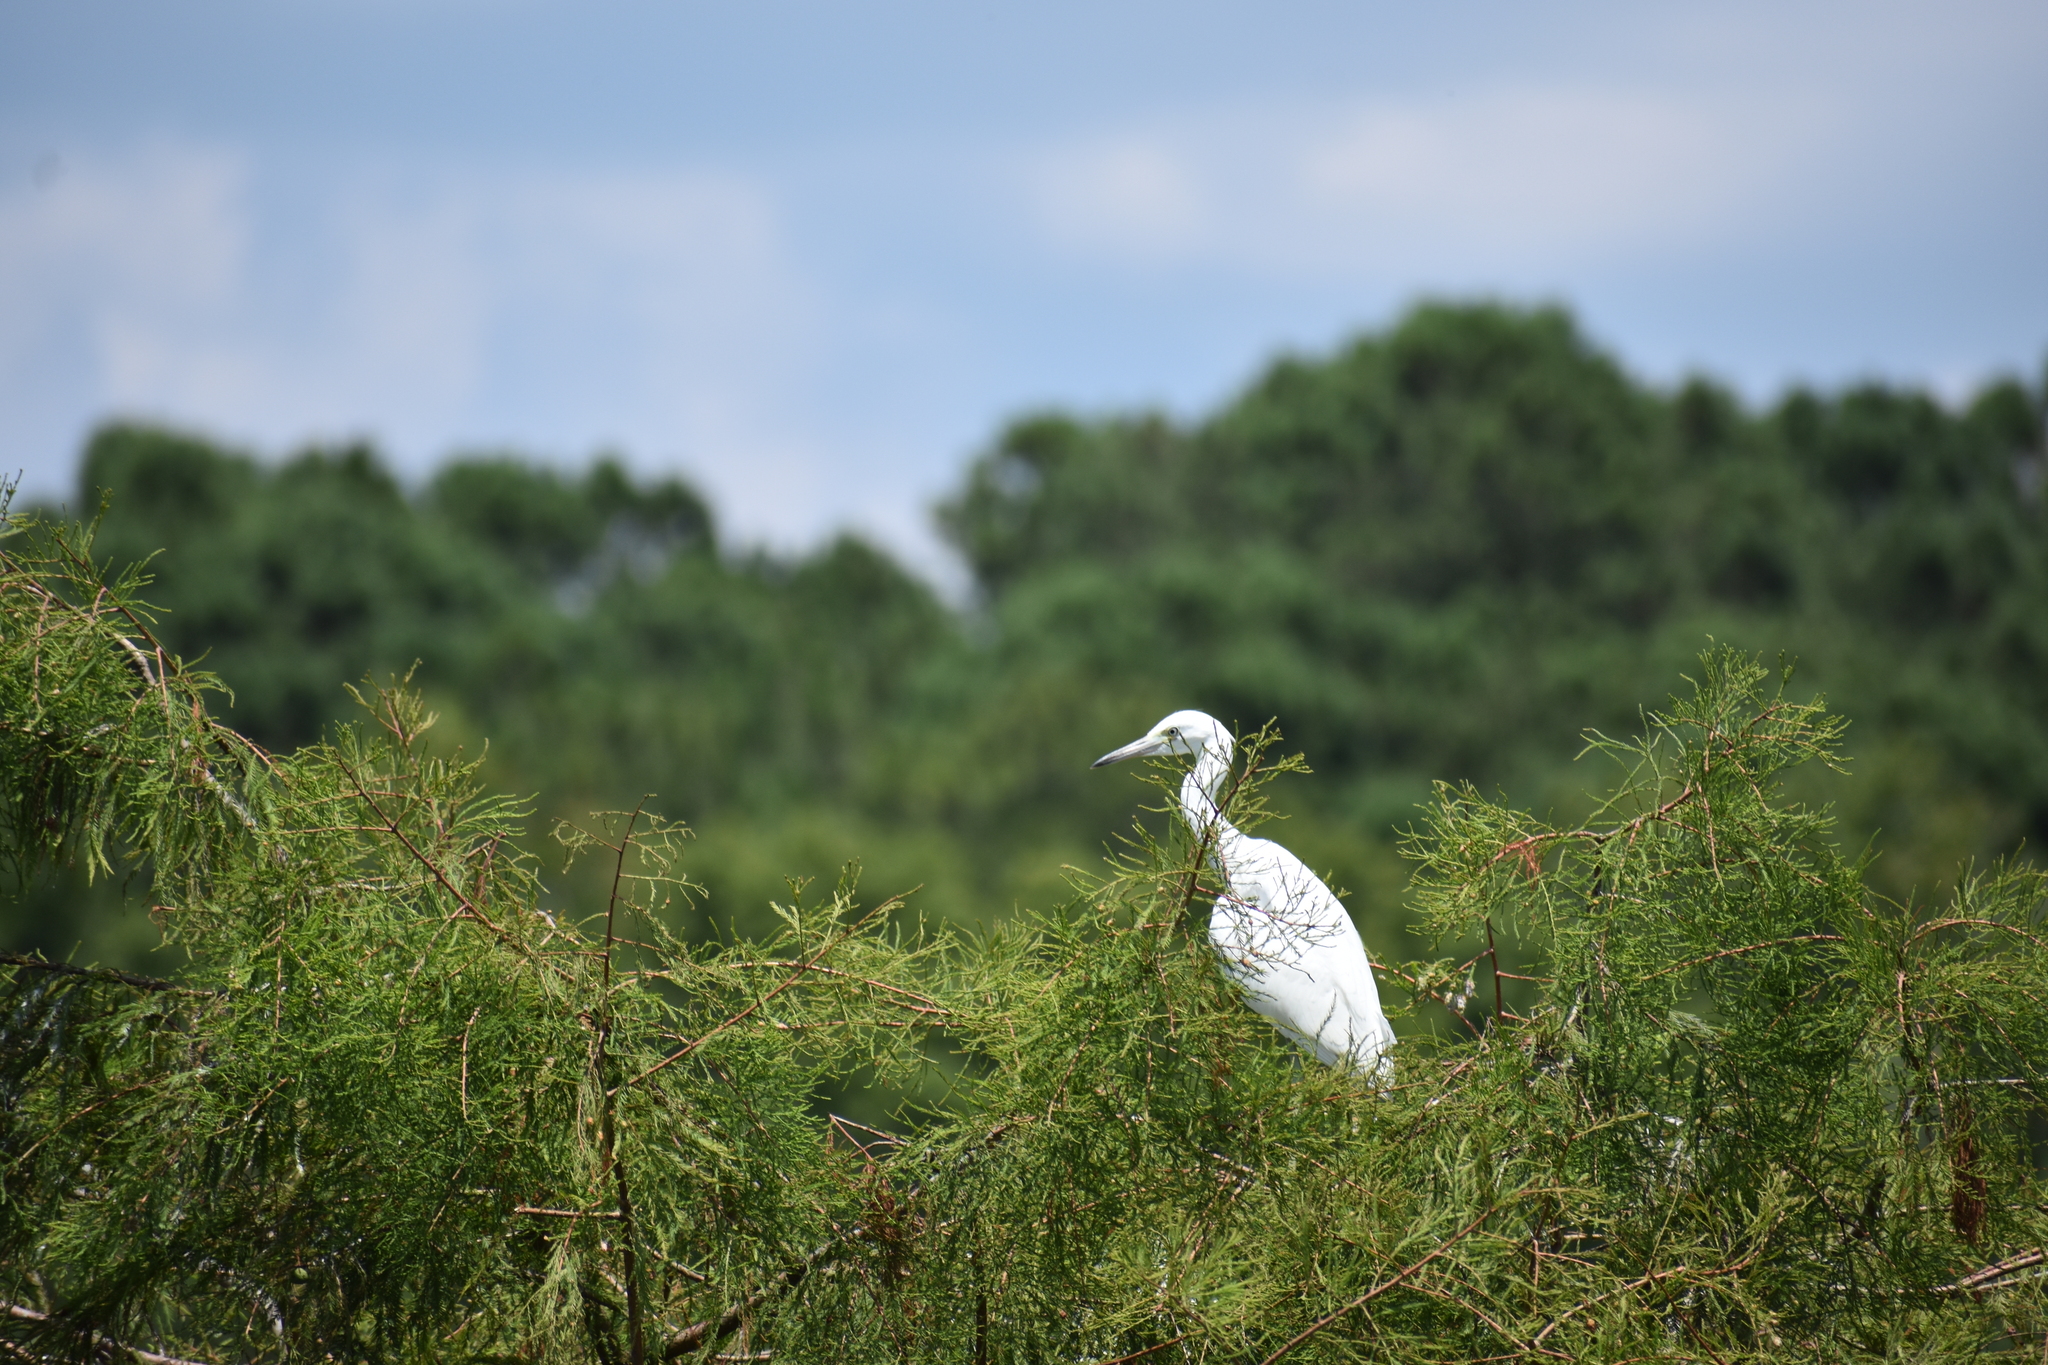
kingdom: Animalia
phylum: Chordata
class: Aves
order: Pelecaniformes
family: Ardeidae
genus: Egretta
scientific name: Egretta caerulea
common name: Little blue heron
